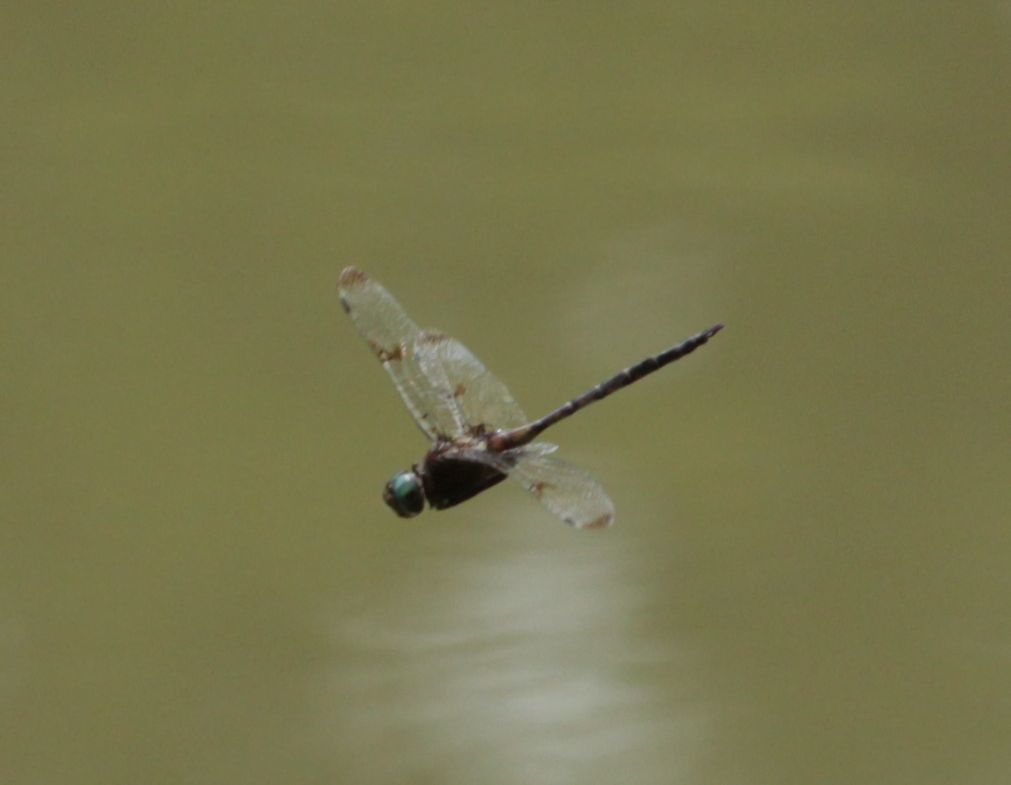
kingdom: Animalia
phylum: Arthropoda
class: Insecta
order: Odonata
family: Corduliidae
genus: Epitheca
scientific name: Epitheca princeps
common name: Prince baskettail
